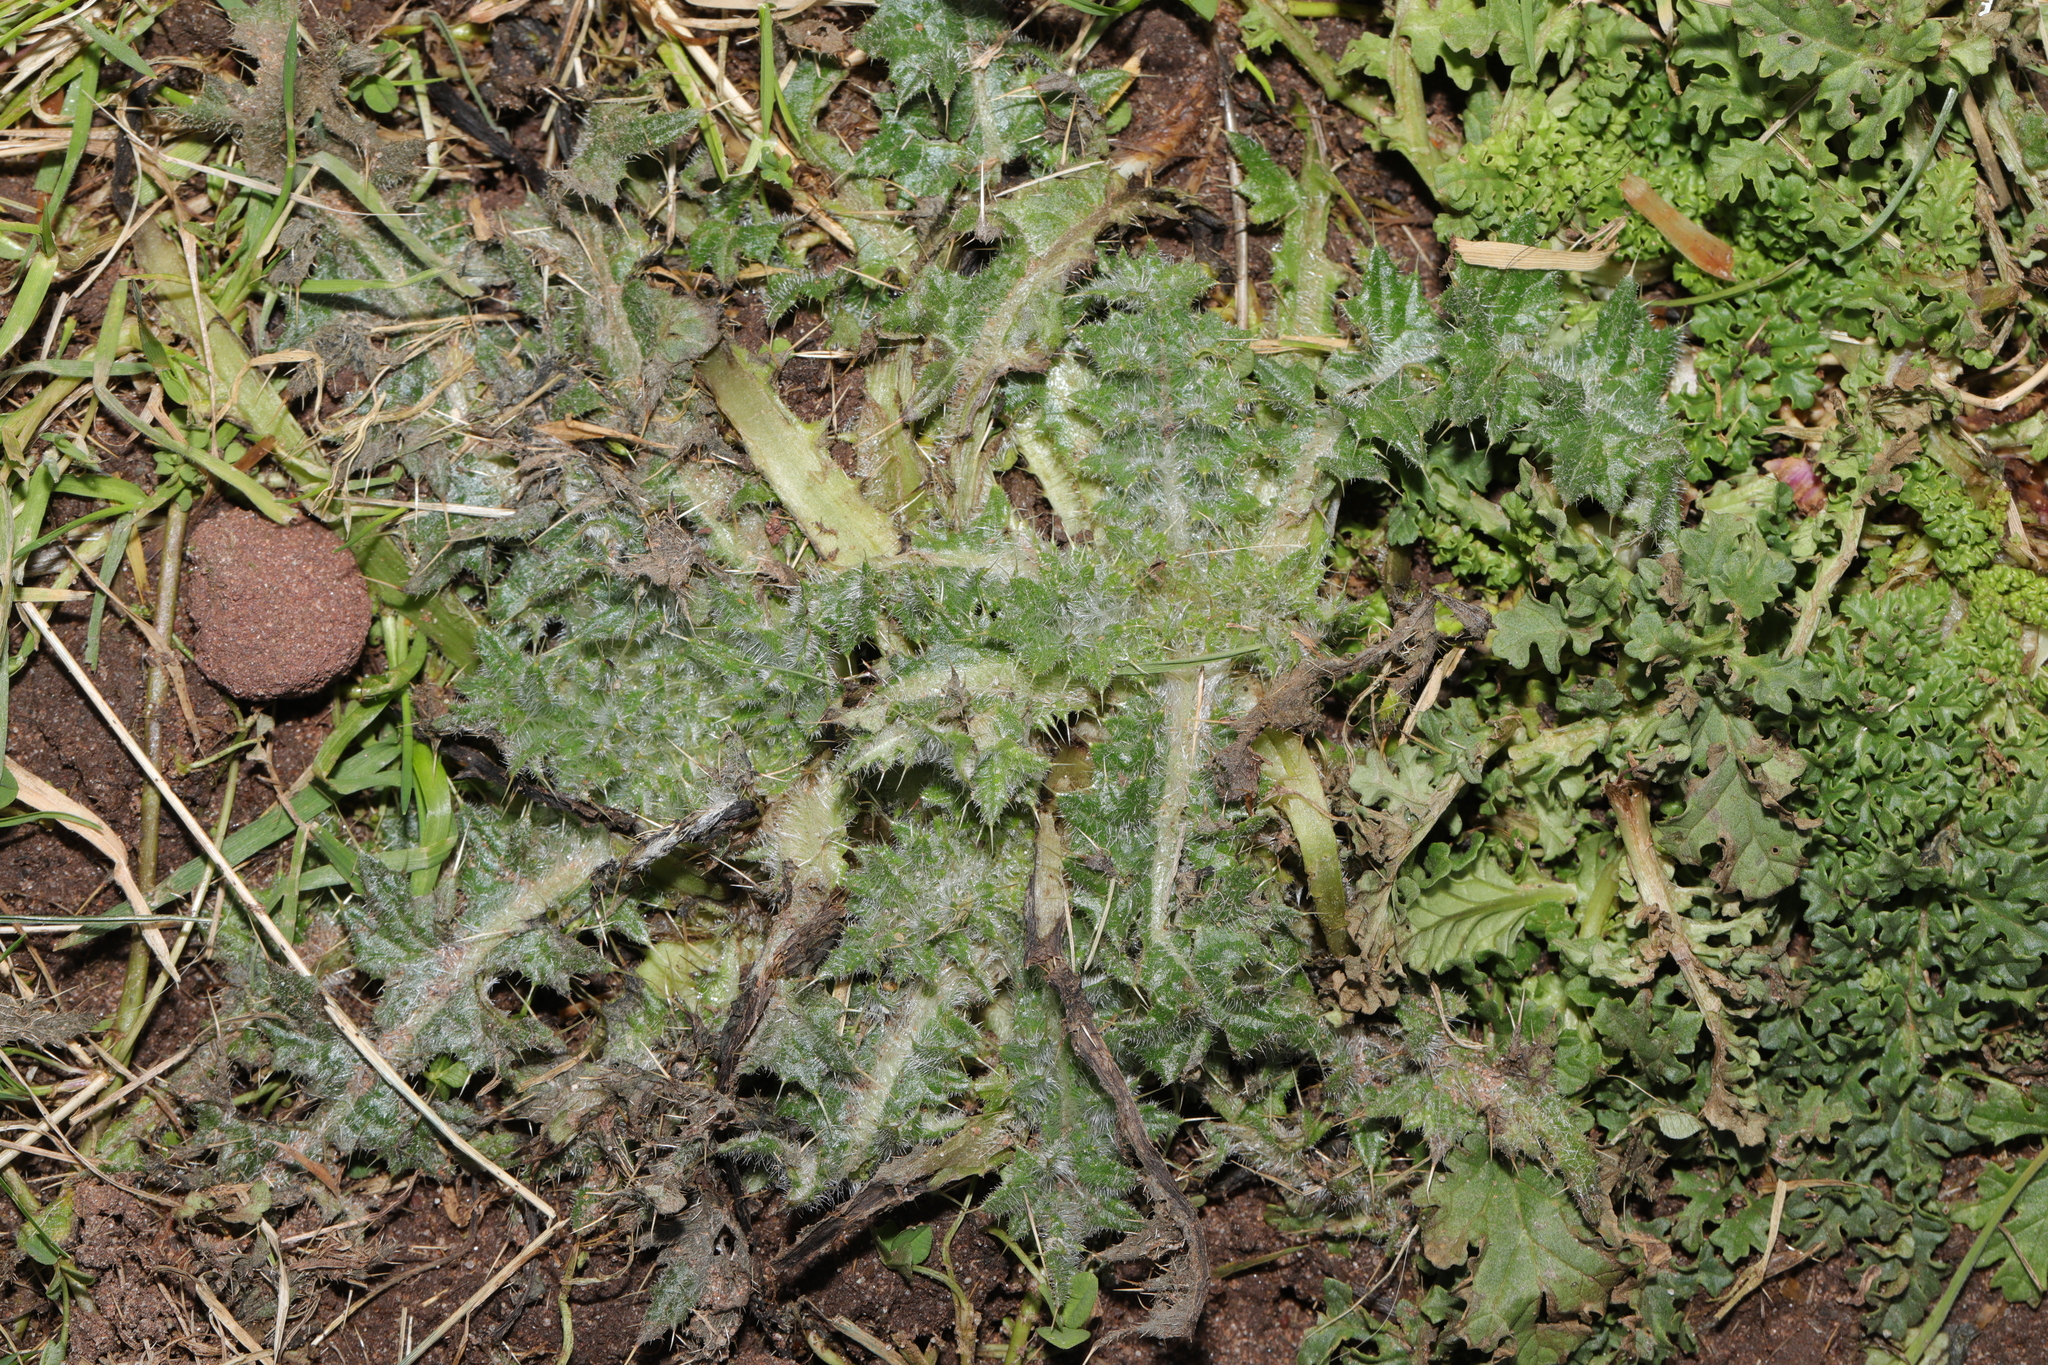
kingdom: Plantae
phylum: Tracheophyta
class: Magnoliopsida
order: Asterales
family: Asteraceae
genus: Cirsium
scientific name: Cirsium vulgare
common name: Bull thistle
